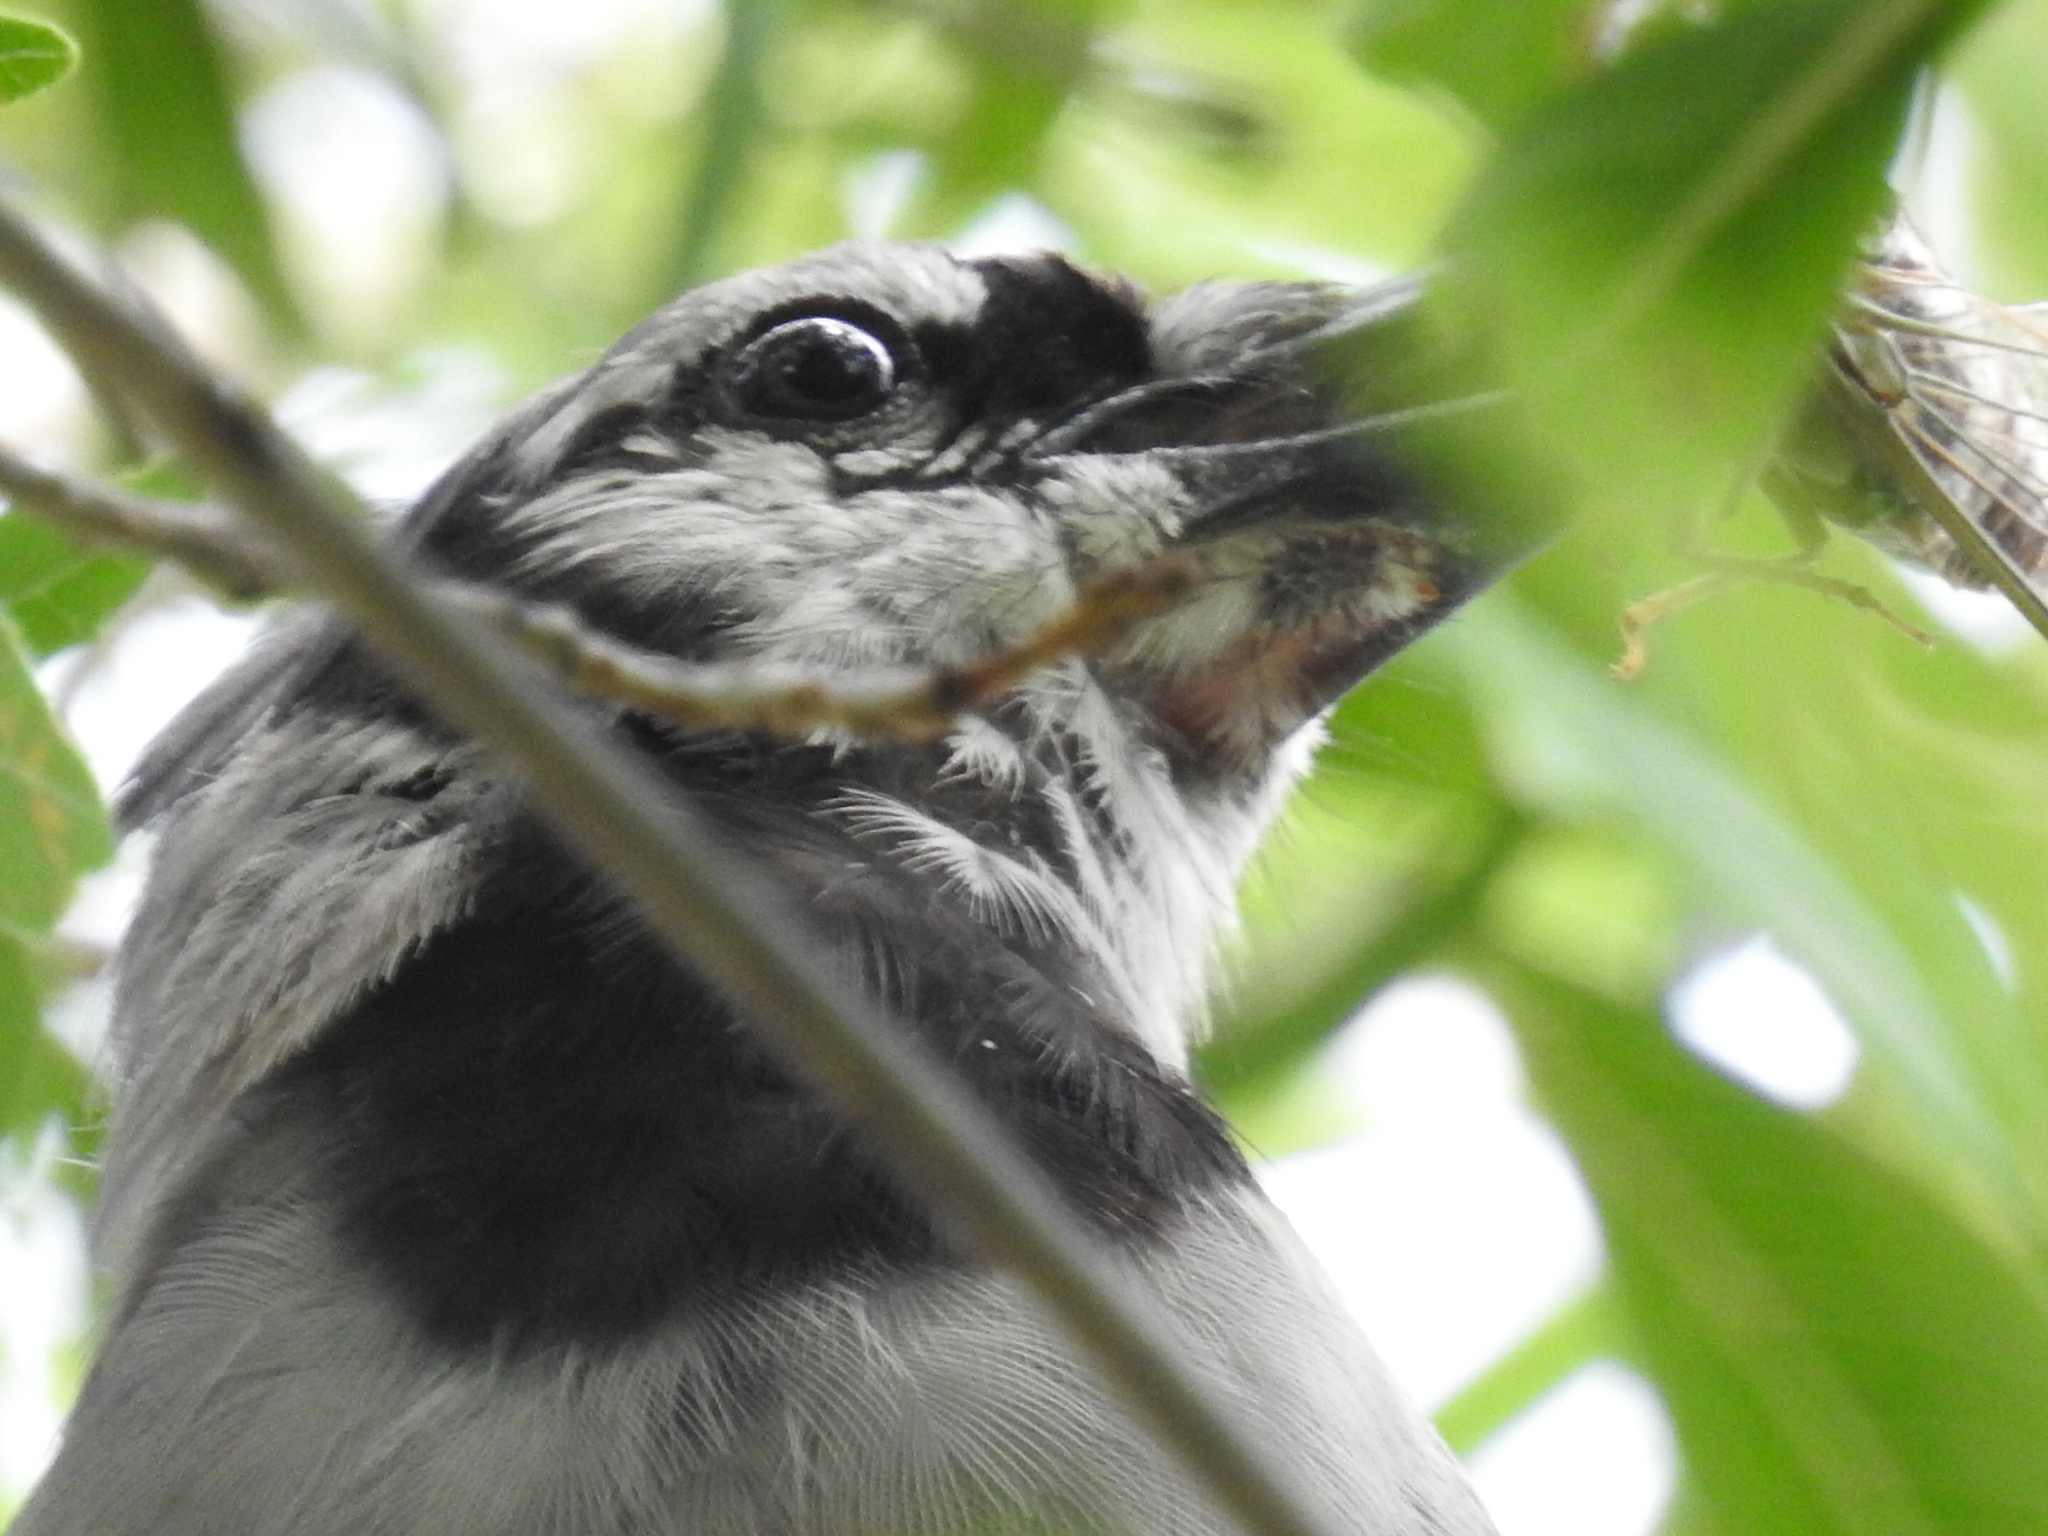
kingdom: Animalia
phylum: Chordata
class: Aves
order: Passeriformes
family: Corvidae
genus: Cyanocitta
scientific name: Cyanocitta cristata
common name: Blue jay
